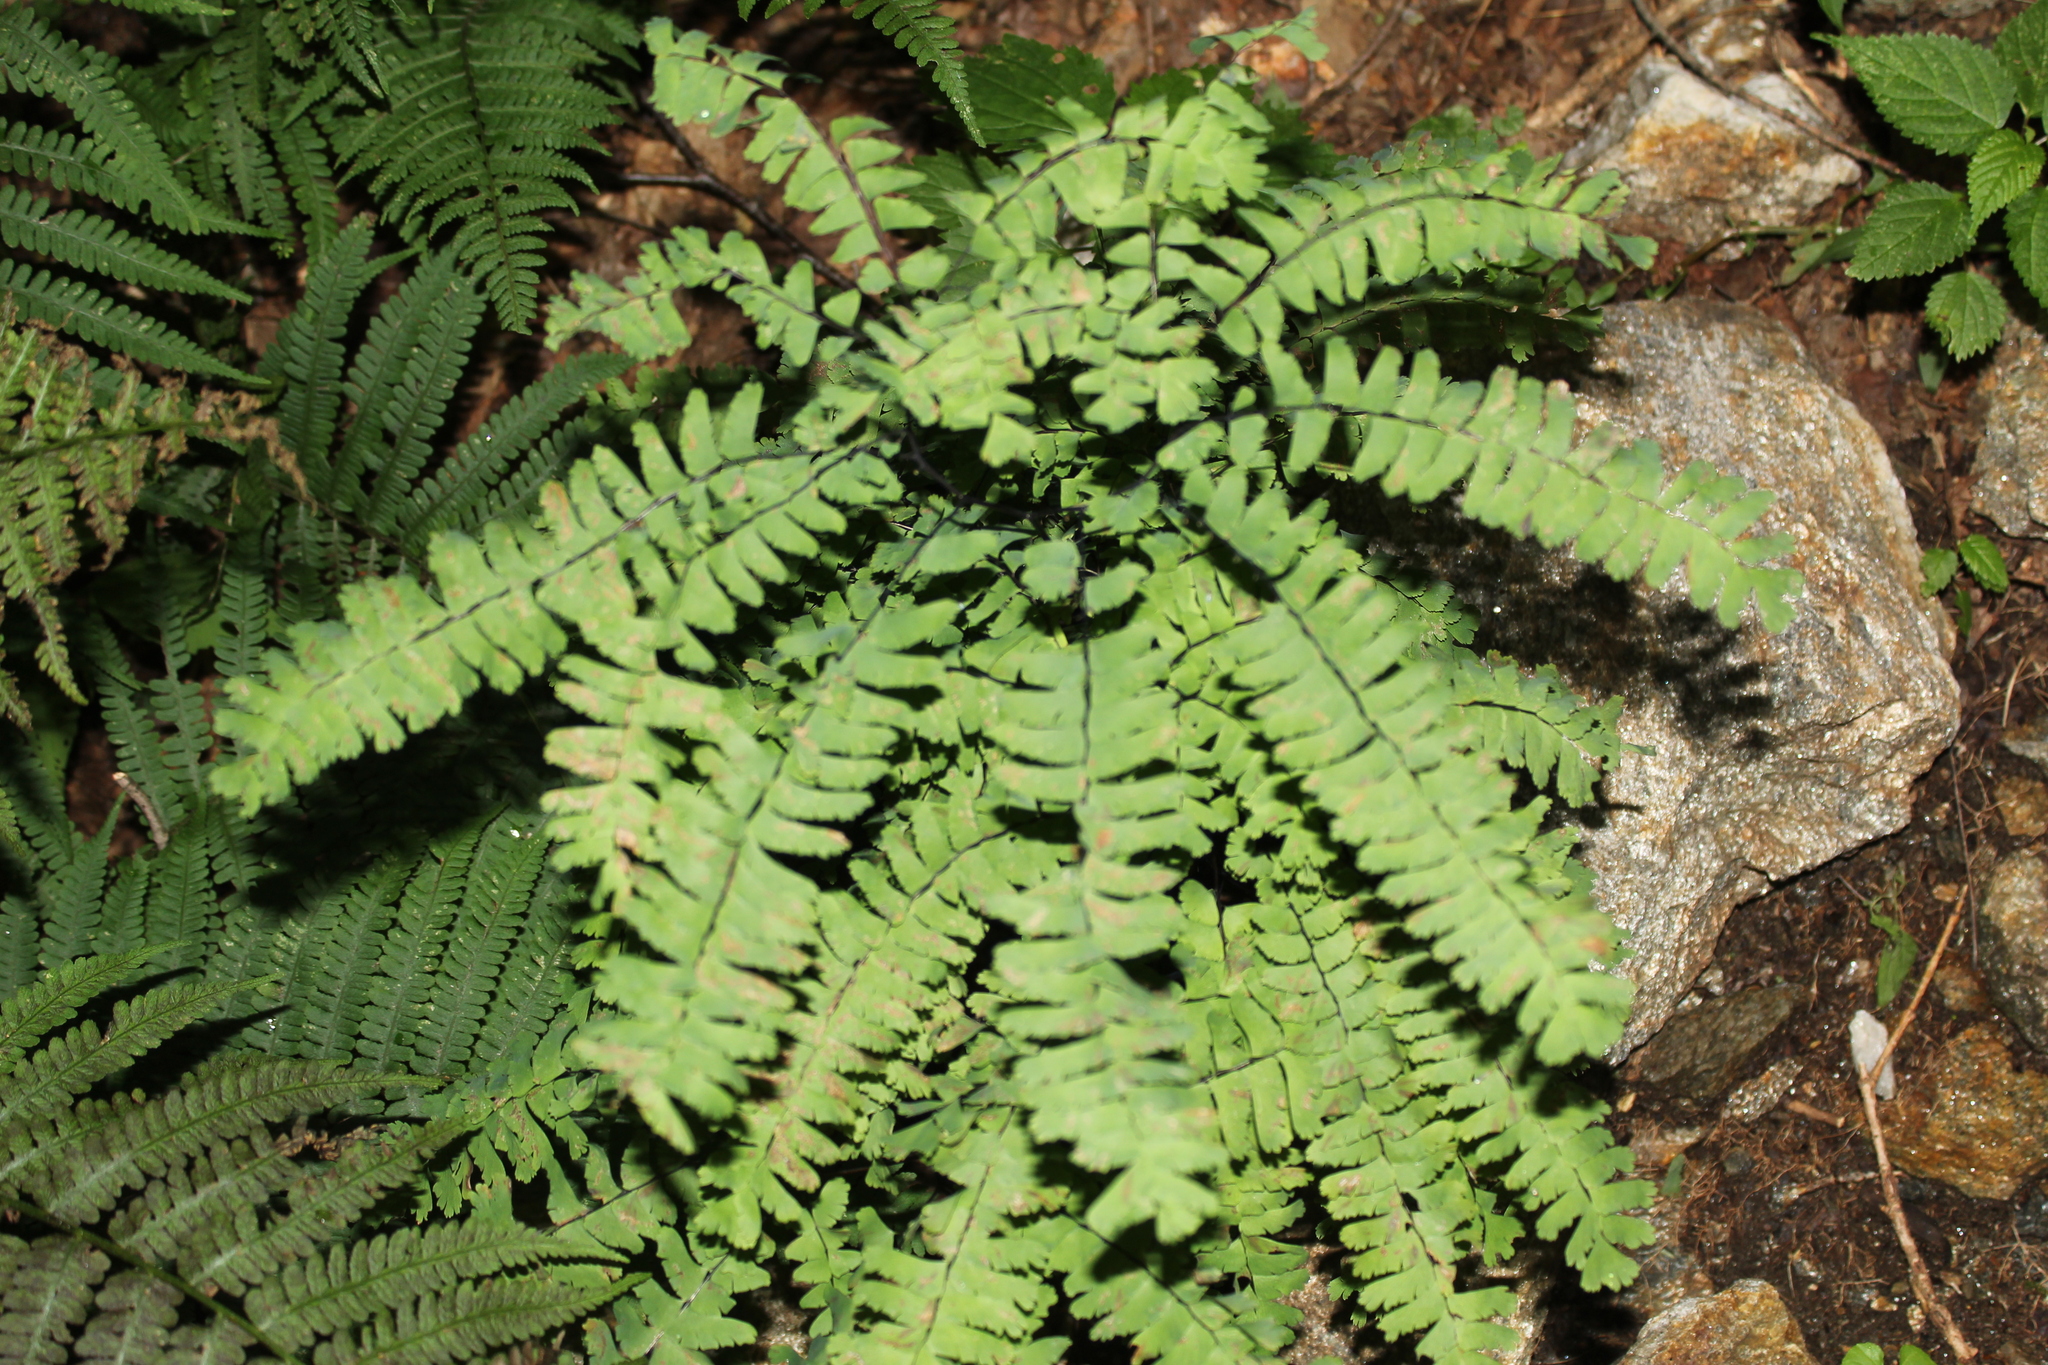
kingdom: Plantae
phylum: Tracheophyta
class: Polypodiopsida
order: Polypodiales
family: Pteridaceae
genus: Adiantum
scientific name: Adiantum pedatum
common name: Five-finger fern
